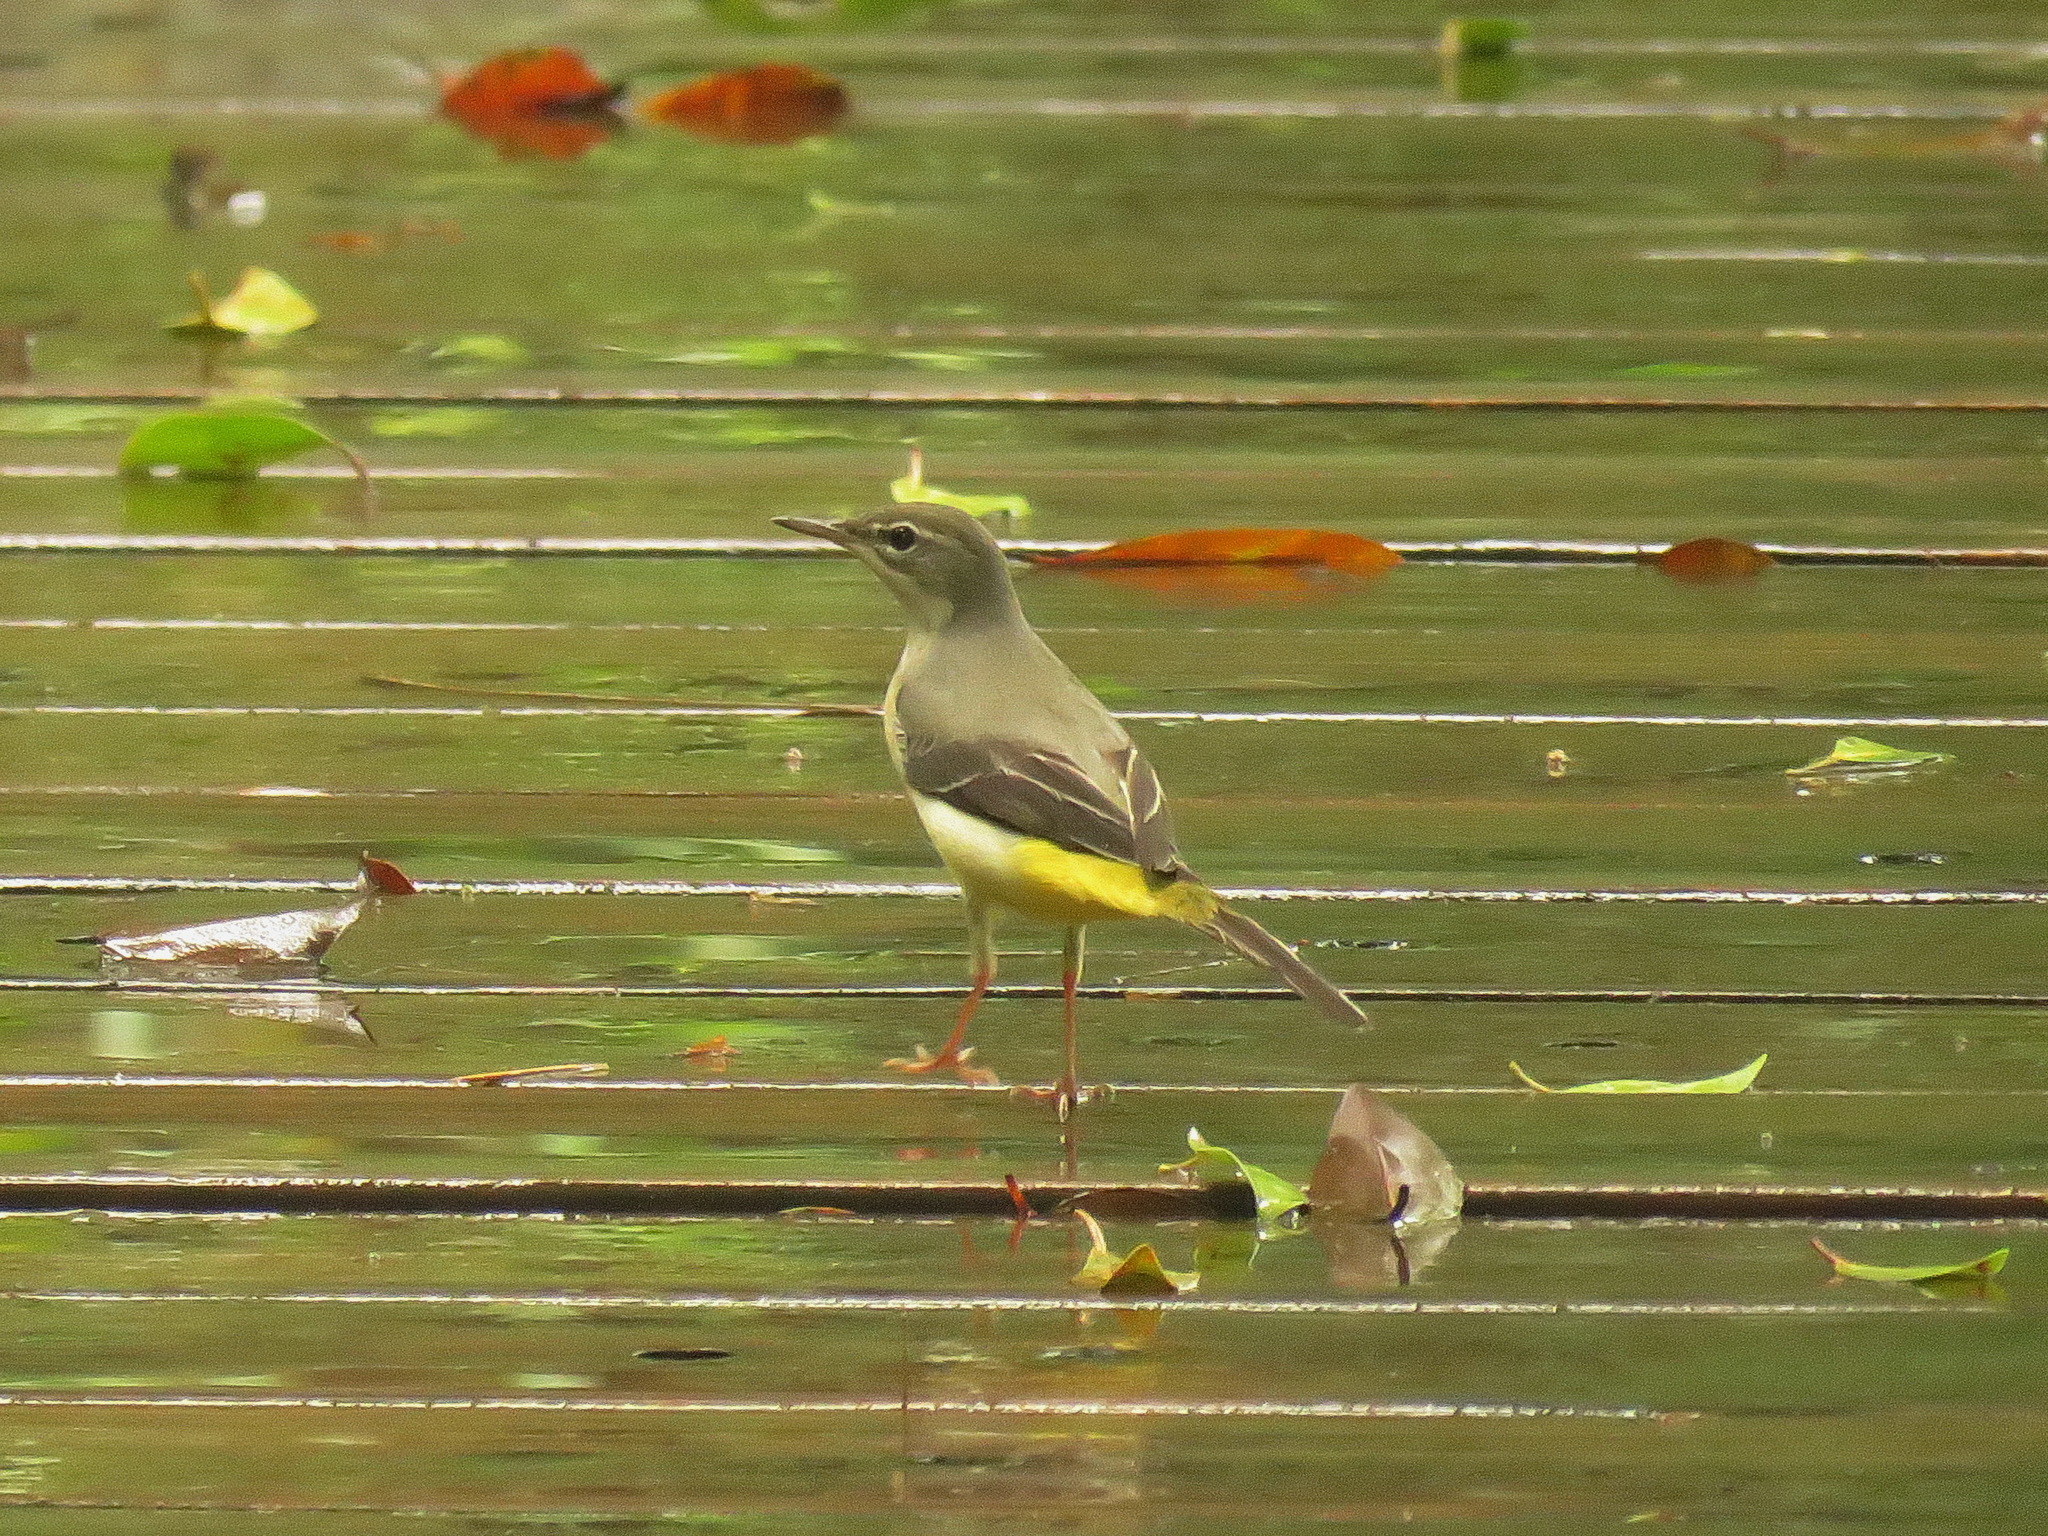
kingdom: Animalia
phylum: Chordata
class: Aves
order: Passeriformes
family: Motacillidae
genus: Motacilla
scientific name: Motacilla cinerea
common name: Grey wagtail
